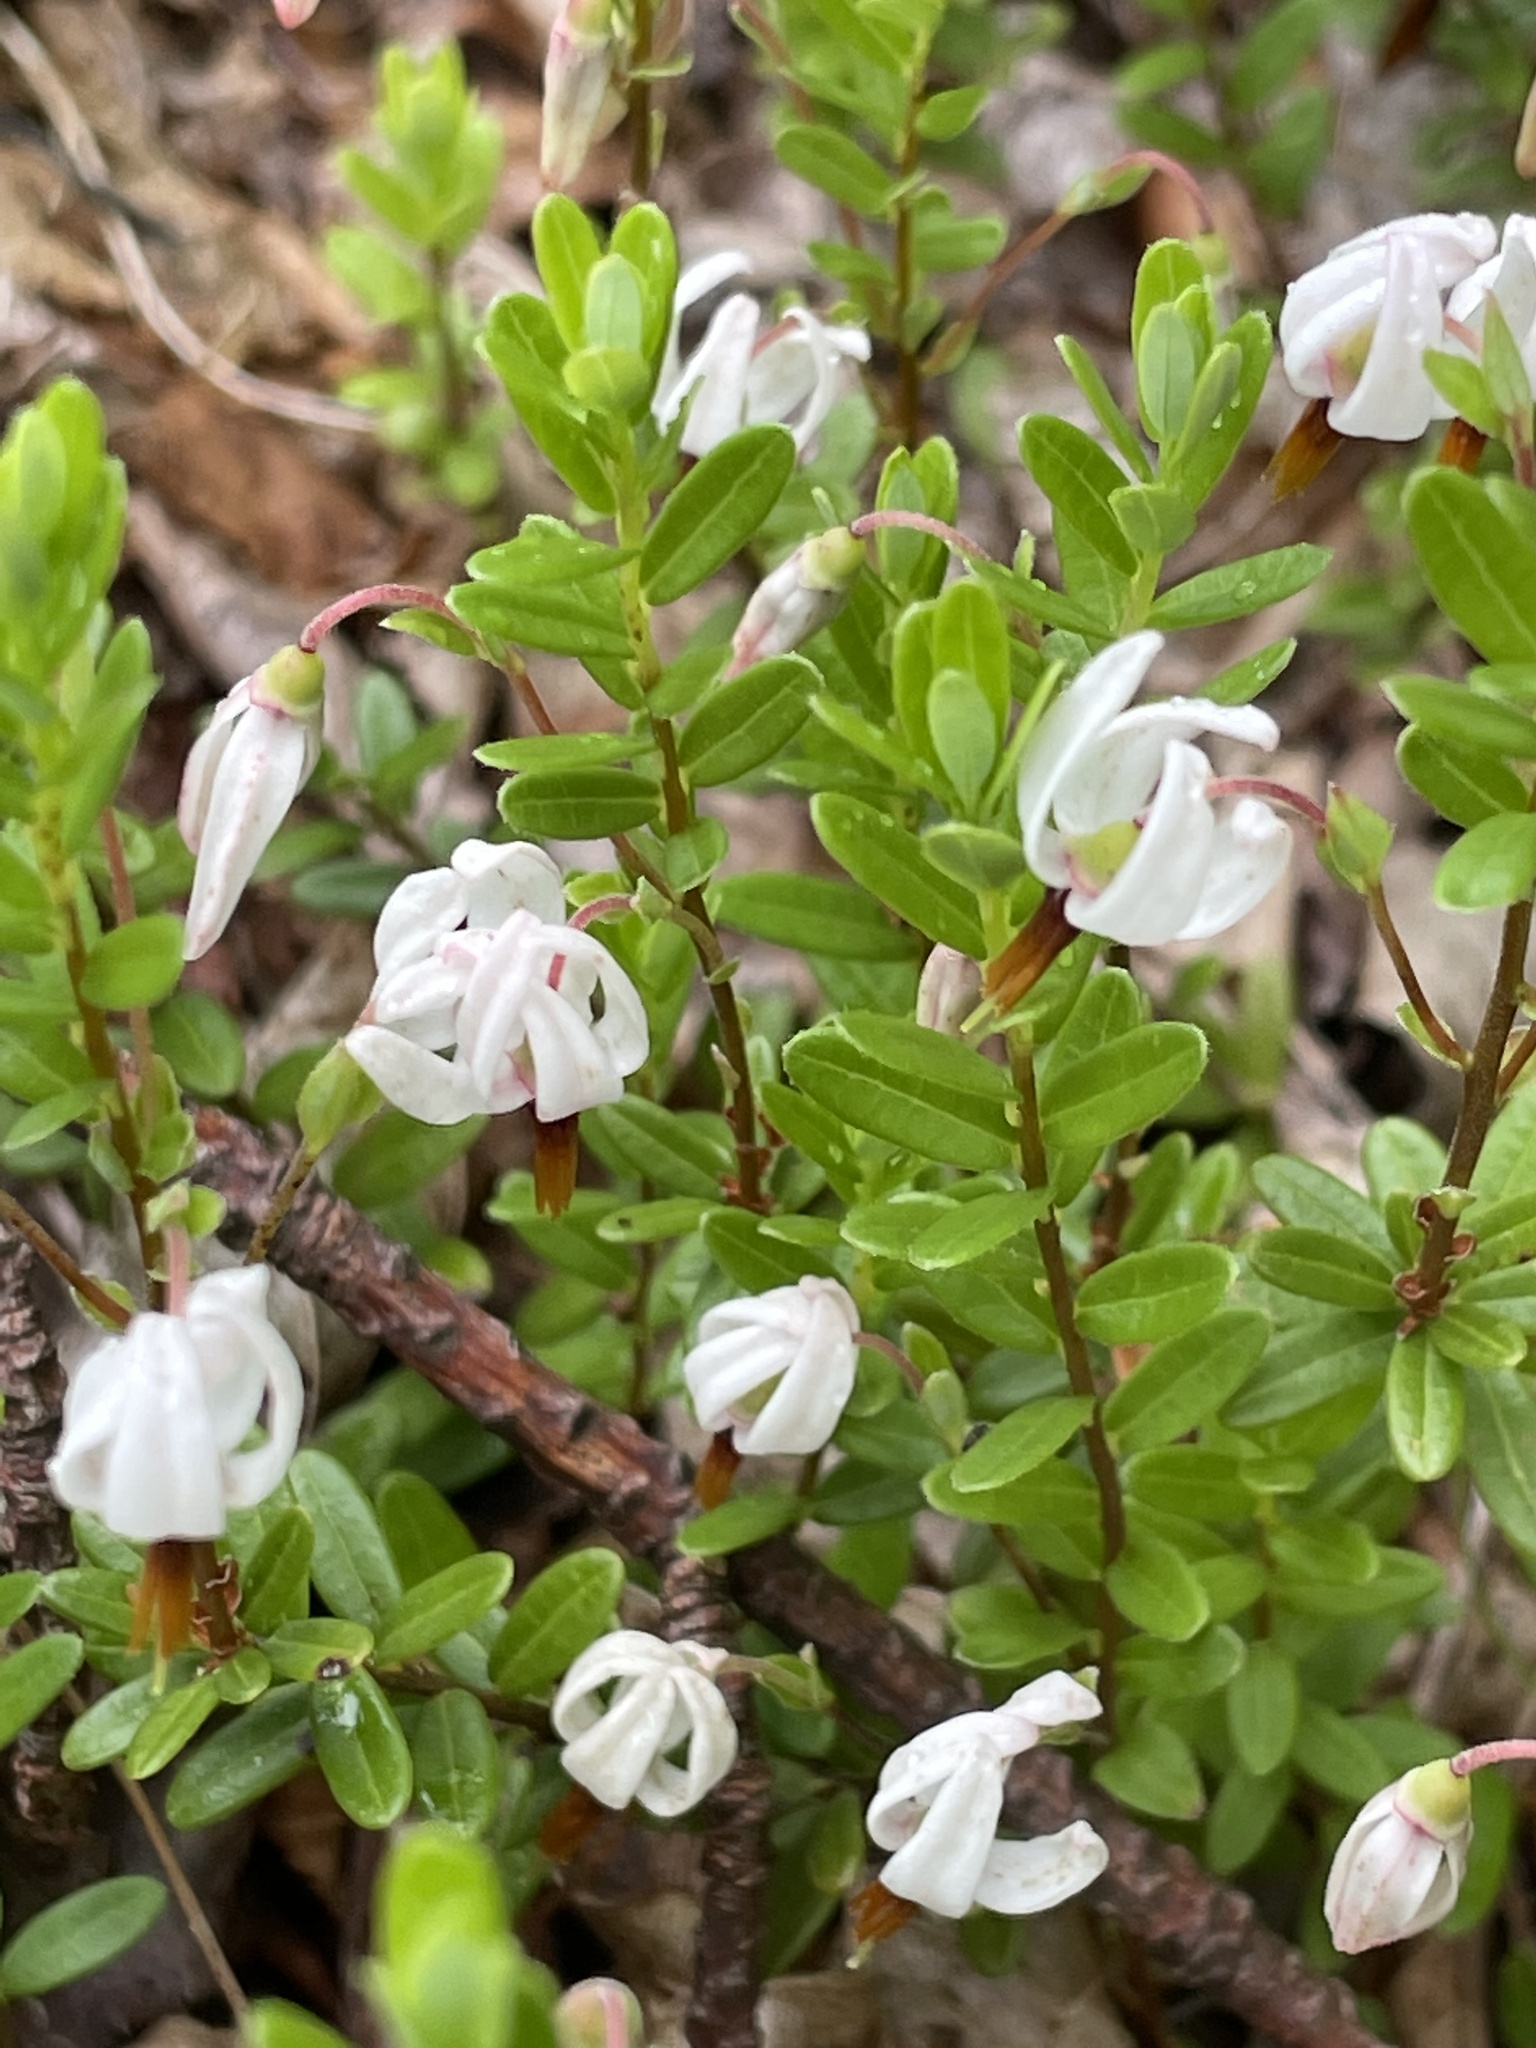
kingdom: Plantae
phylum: Tracheophyta
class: Magnoliopsida
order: Ericales
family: Ericaceae
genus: Vaccinium
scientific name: Vaccinium macrocarpon
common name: American cranberry
